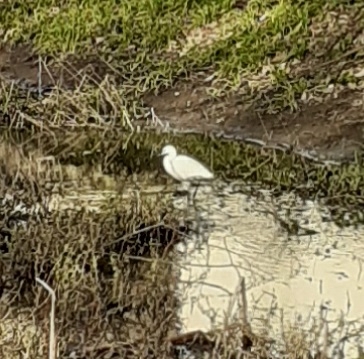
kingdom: Animalia
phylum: Chordata
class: Aves
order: Pelecaniformes
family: Ardeidae
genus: Egretta
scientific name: Egretta garzetta
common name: Little egret
